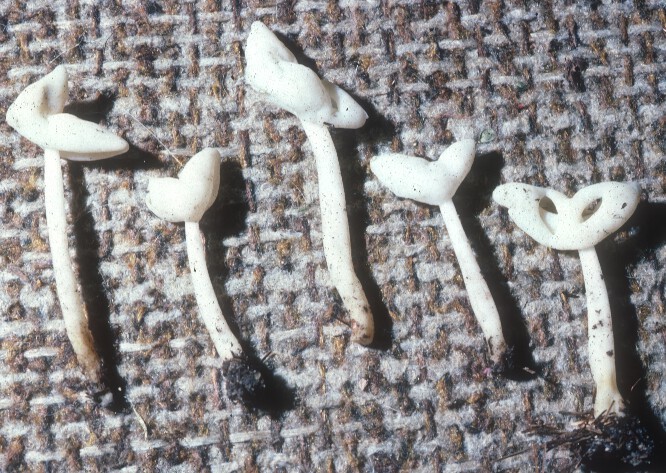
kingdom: Fungi
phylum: Ascomycota
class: Pezizomycetes
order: Pezizales
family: Helvellaceae
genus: Helvella
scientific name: Helvella levis
